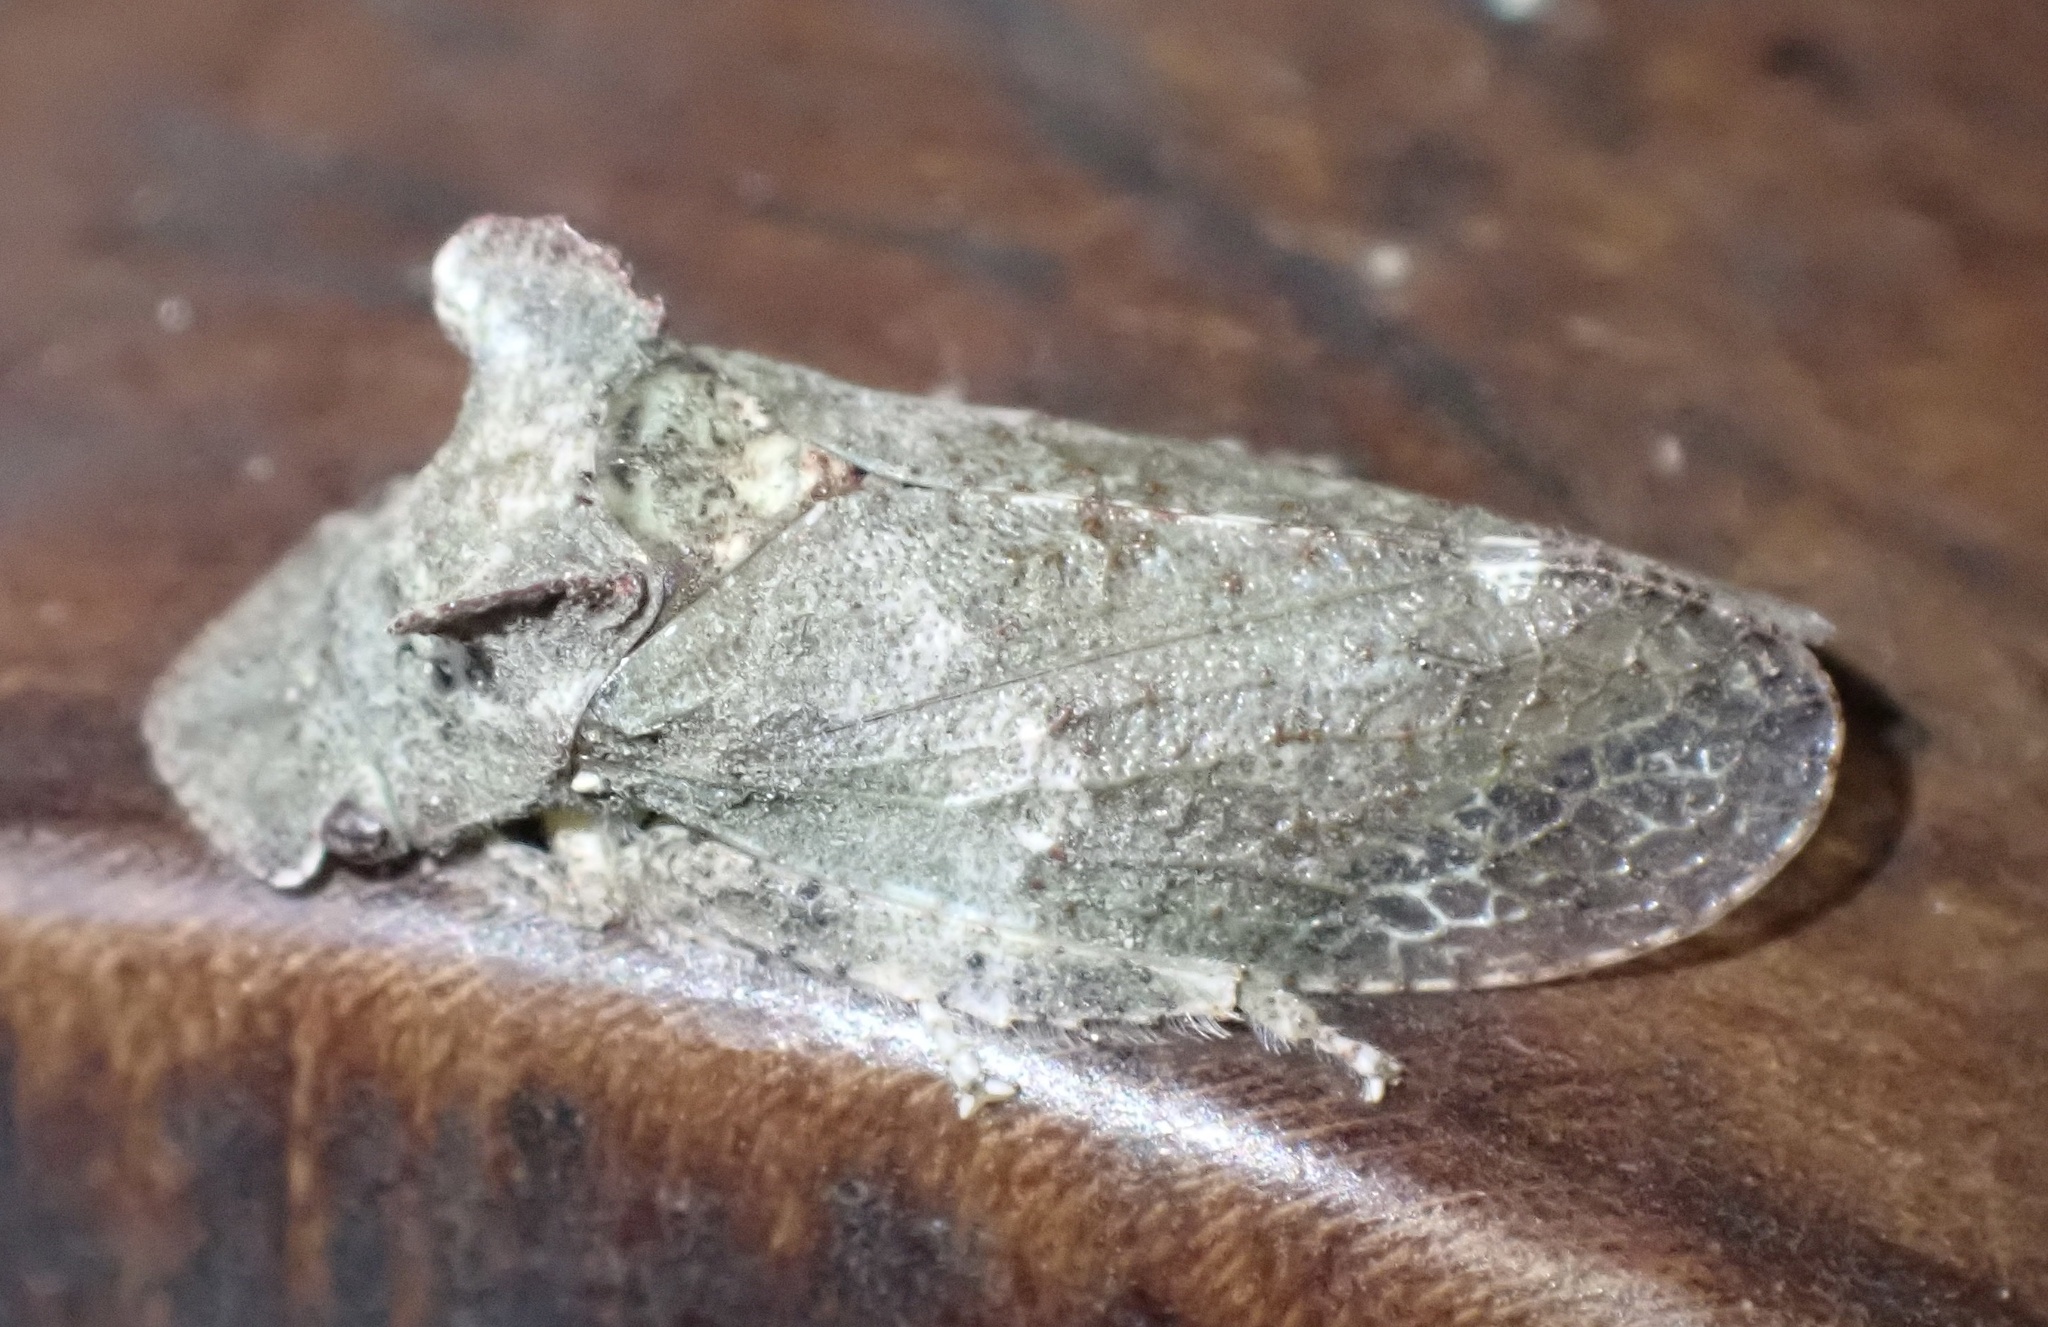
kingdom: Animalia
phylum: Arthropoda
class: Insecta
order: Hemiptera
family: Cicadellidae
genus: Ledra
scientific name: Ledra aurita
